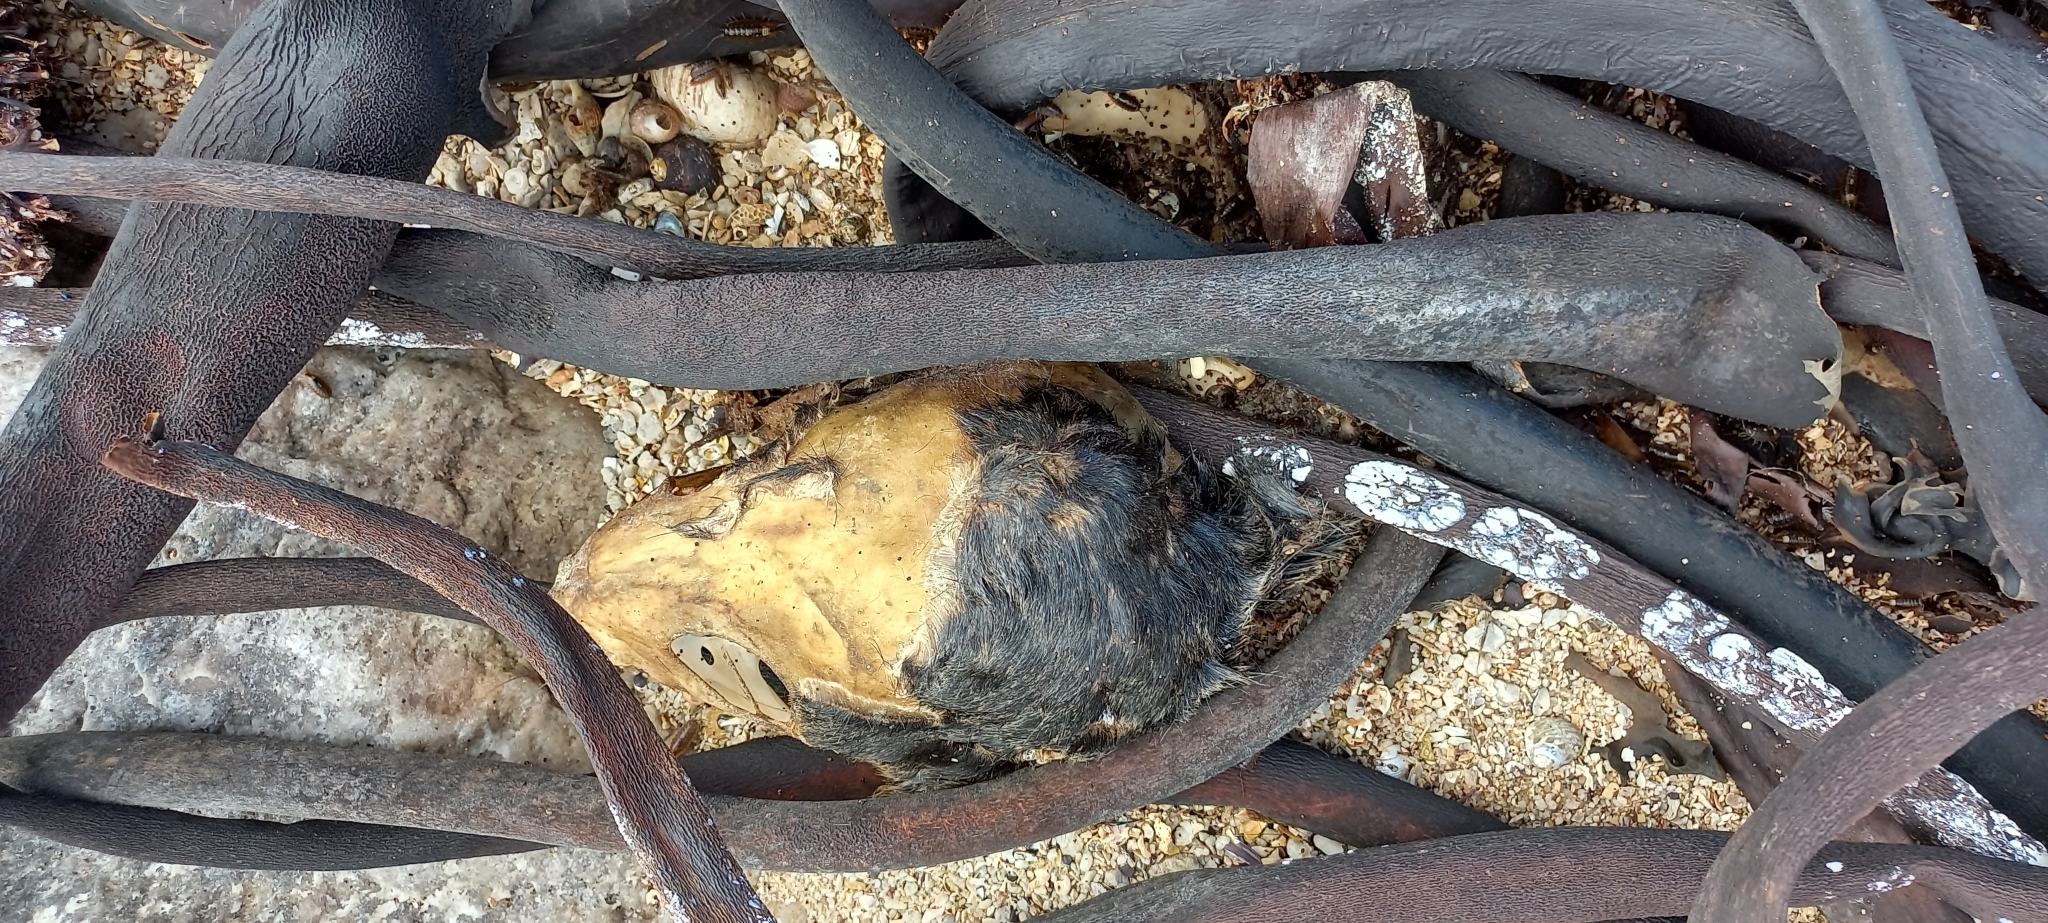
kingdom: Animalia
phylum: Chordata
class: Mammalia
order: Carnivora
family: Otariidae
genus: Arctocephalus
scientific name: Arctocephalus pusillus
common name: Brown fur seal
